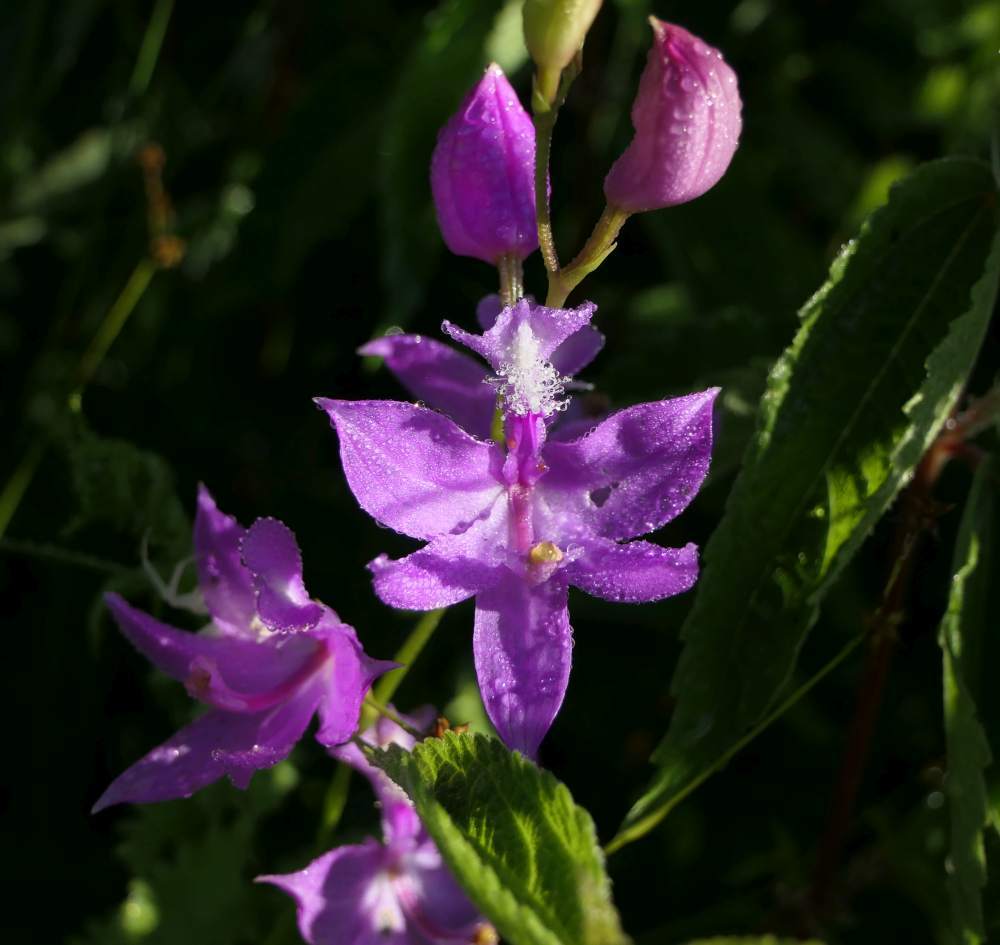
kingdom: Plantae
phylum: Tracheophyta
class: Liliopsida
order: Asparagales
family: Orchidaceae
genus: Calopogon
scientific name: Calopogon tuberosus
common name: Grass-pink
